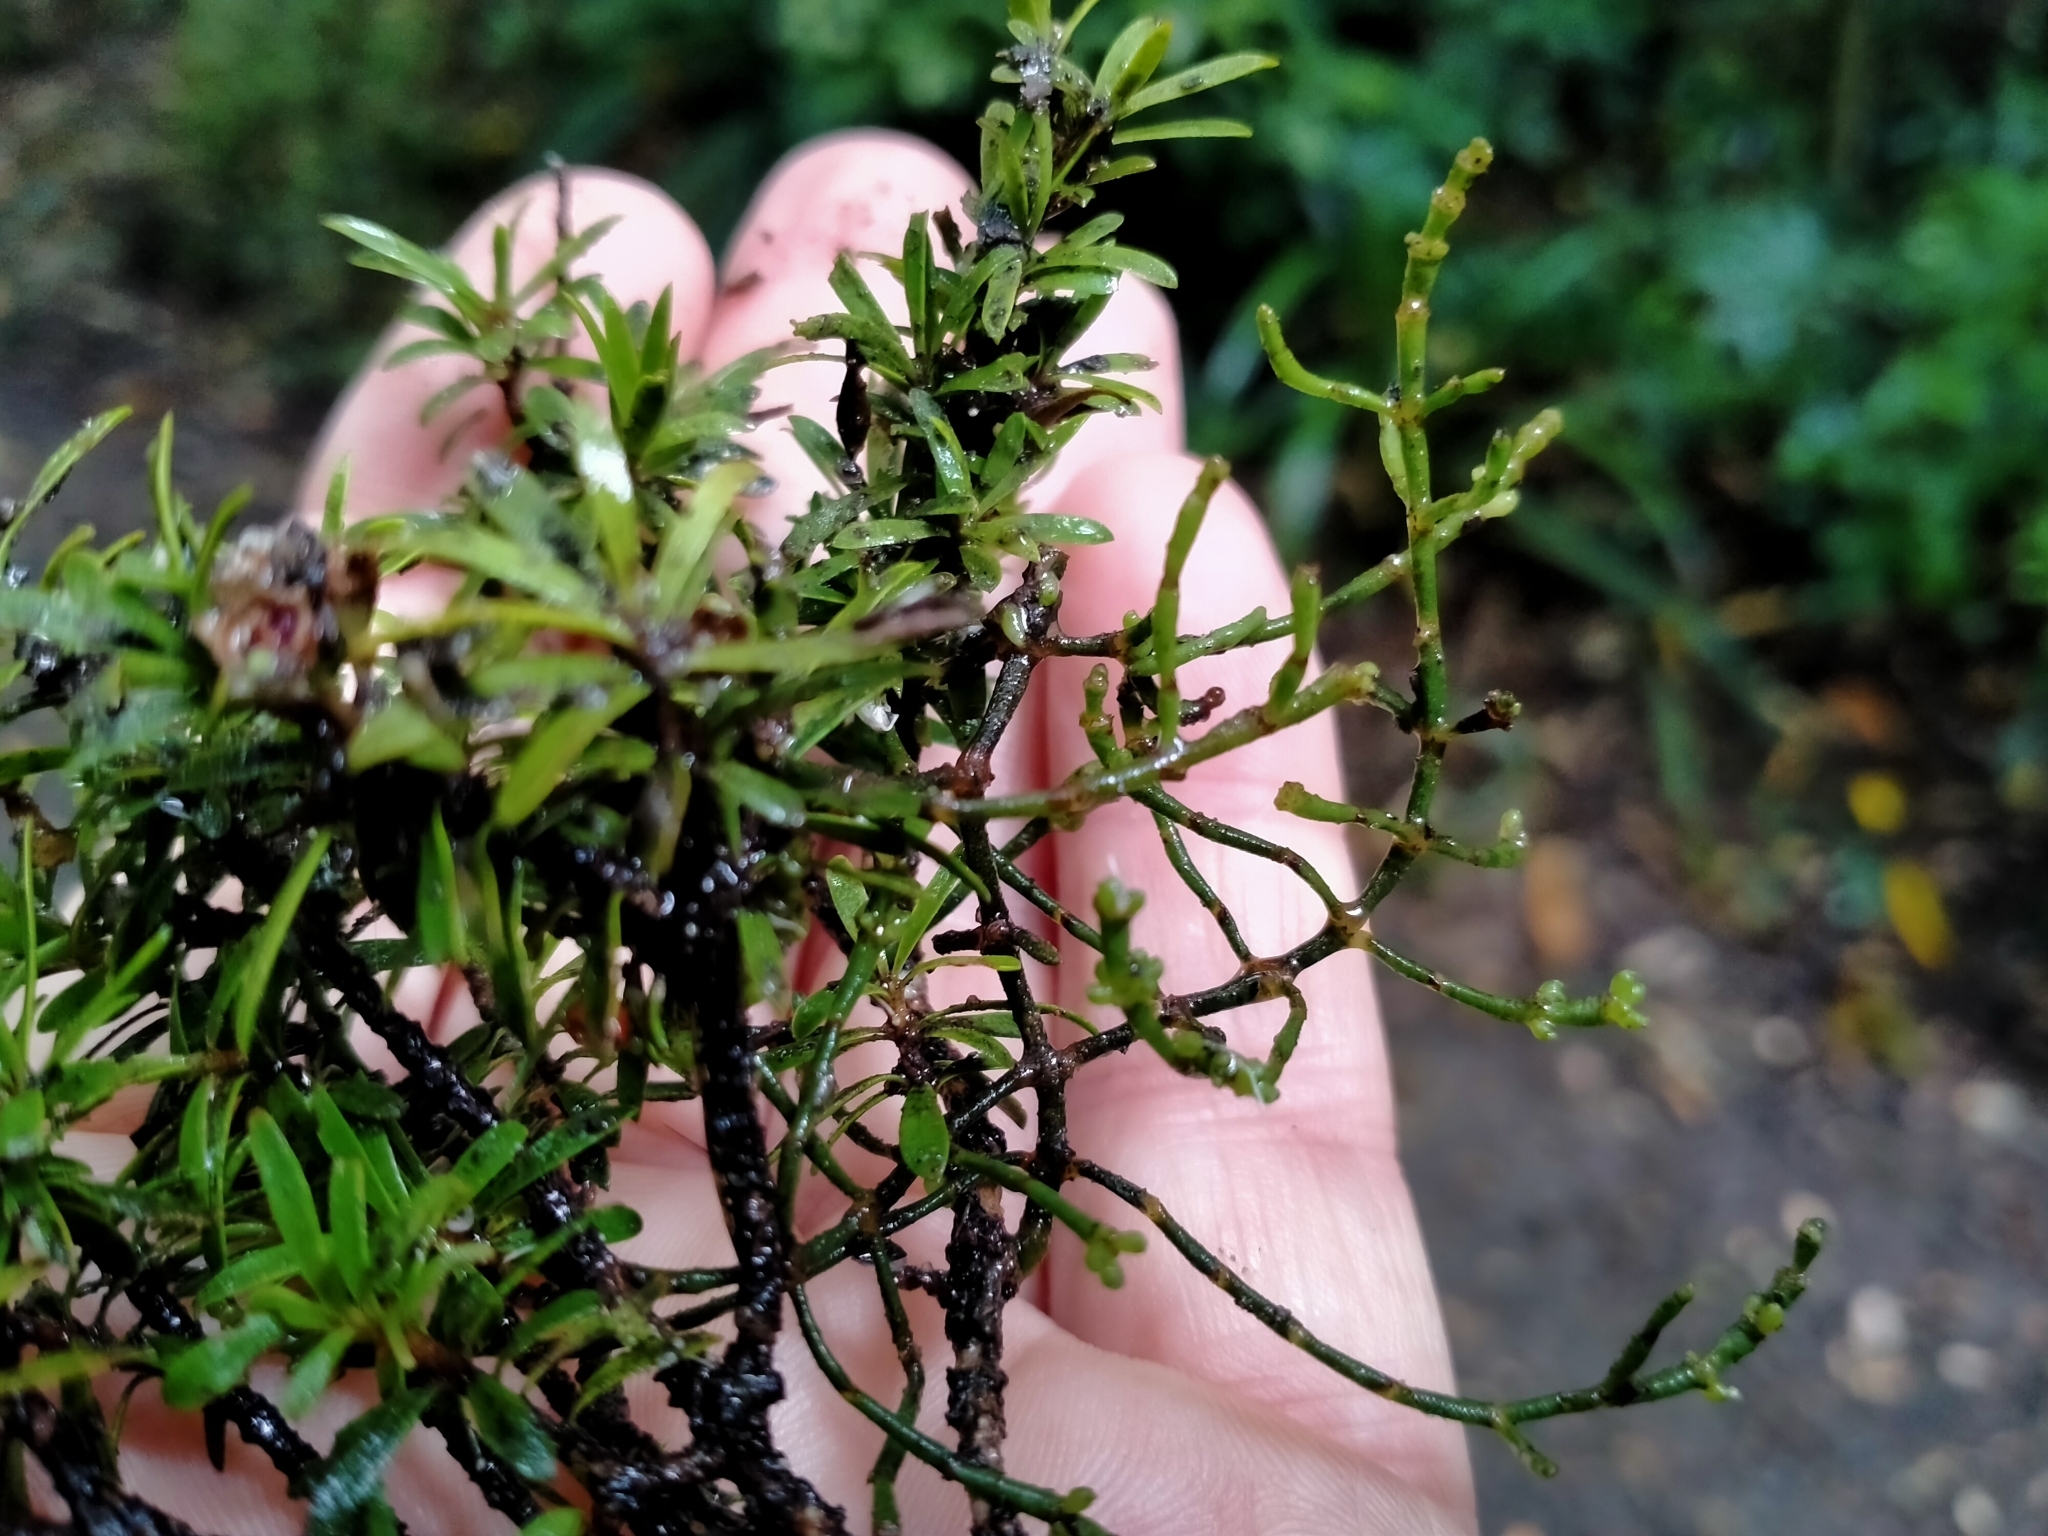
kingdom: Plantae
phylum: Tracheophyta
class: Magnoliopsida
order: Santalales
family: Viscaceae
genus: Korthalsella
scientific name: Korthalsella salicornioides
